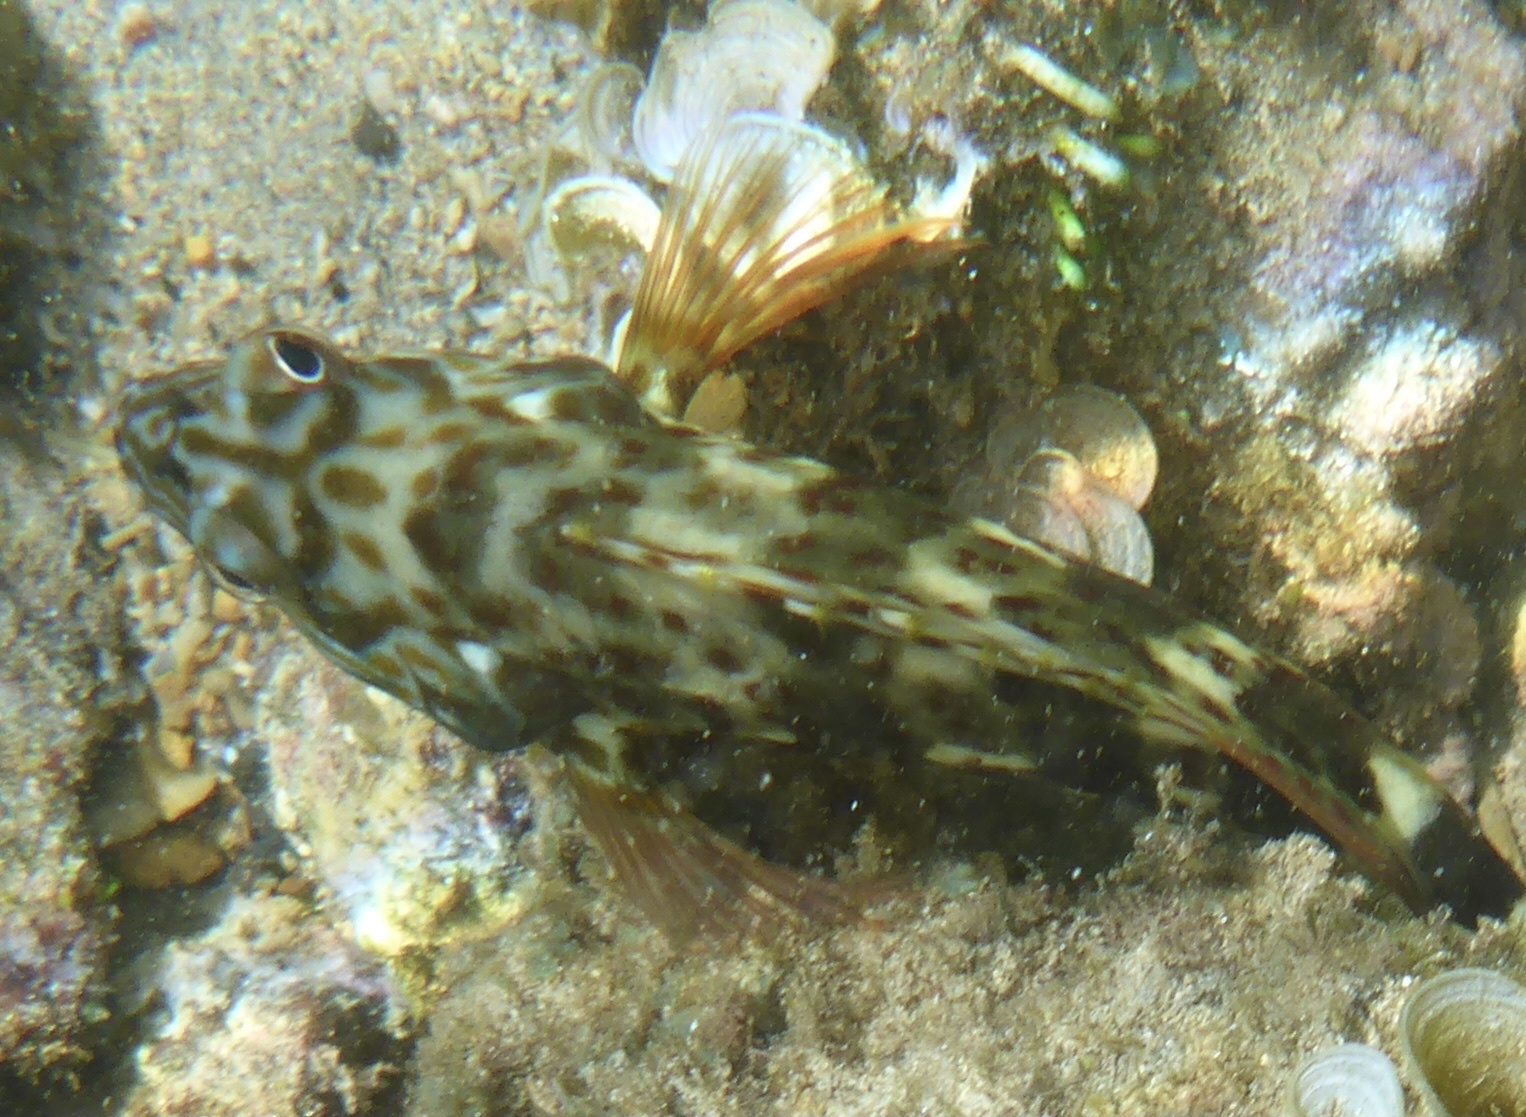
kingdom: Animalia
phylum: Chordata
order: Perciformes
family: Cirrhitidae
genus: Cirrhitus
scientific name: Cirrhitus pinnulatus
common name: Stocky hawkfish
